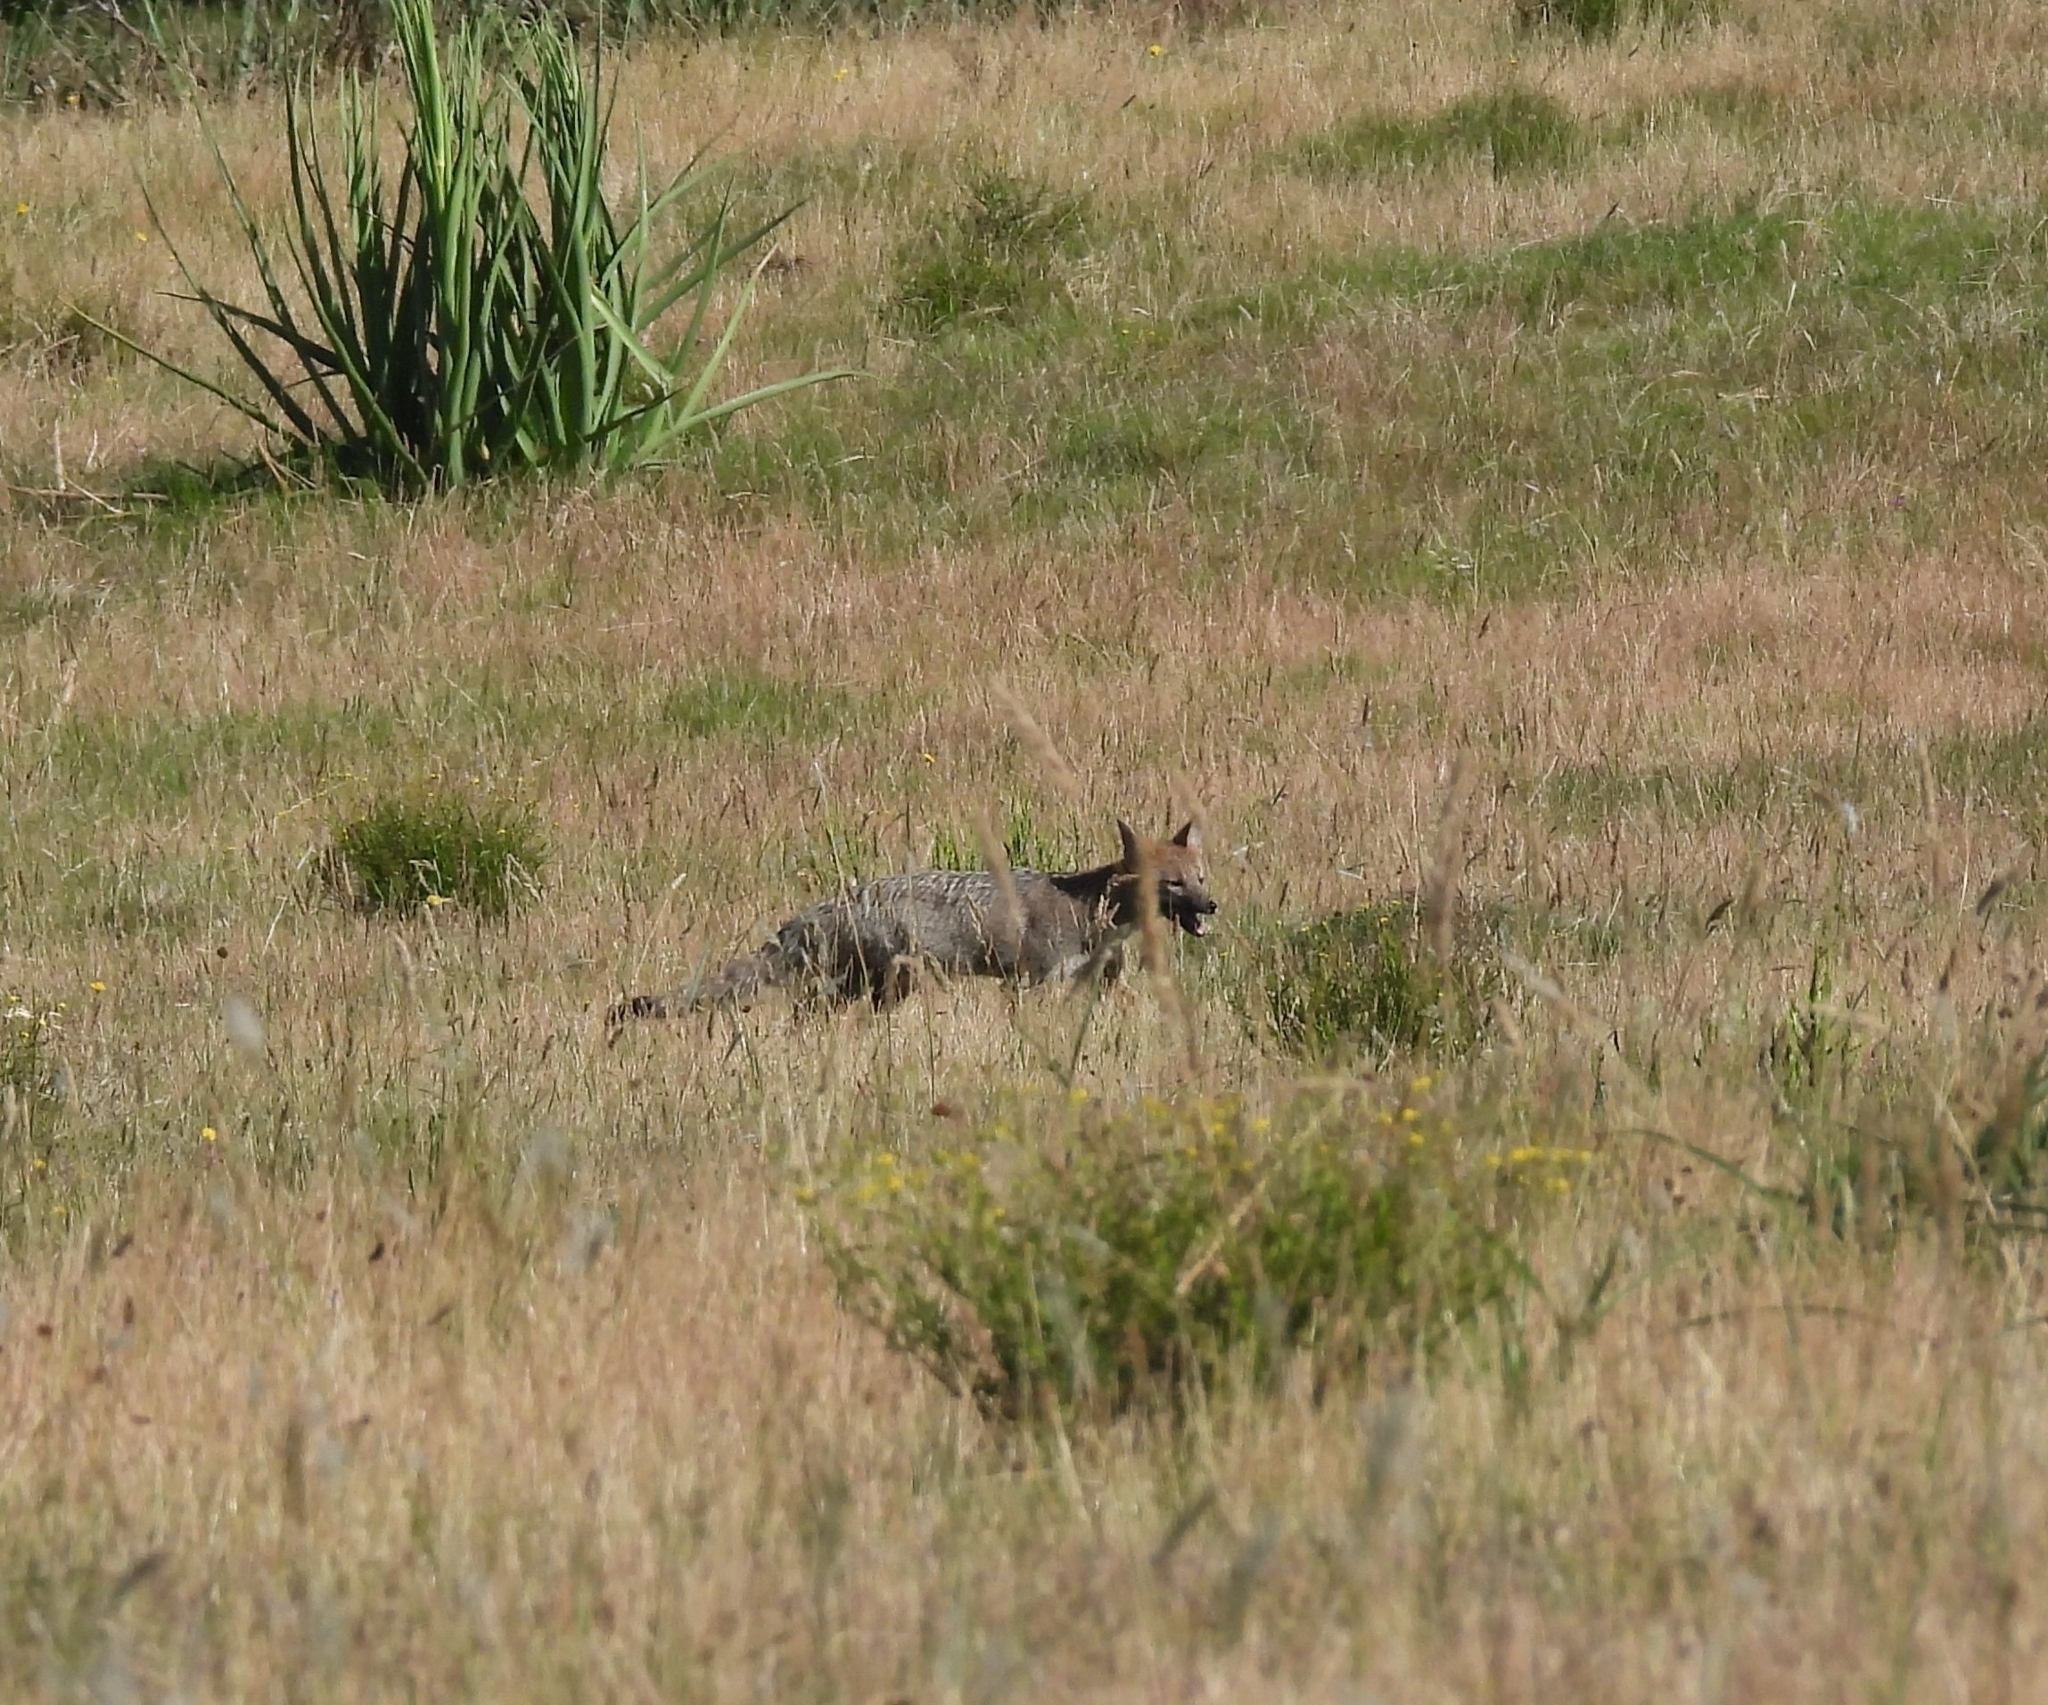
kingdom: Animalia
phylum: Chordata
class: Mammalia
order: Carnivora
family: Canidae
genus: Lycalopex
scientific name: Lycalopex gymnocercus
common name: Pampas fox
